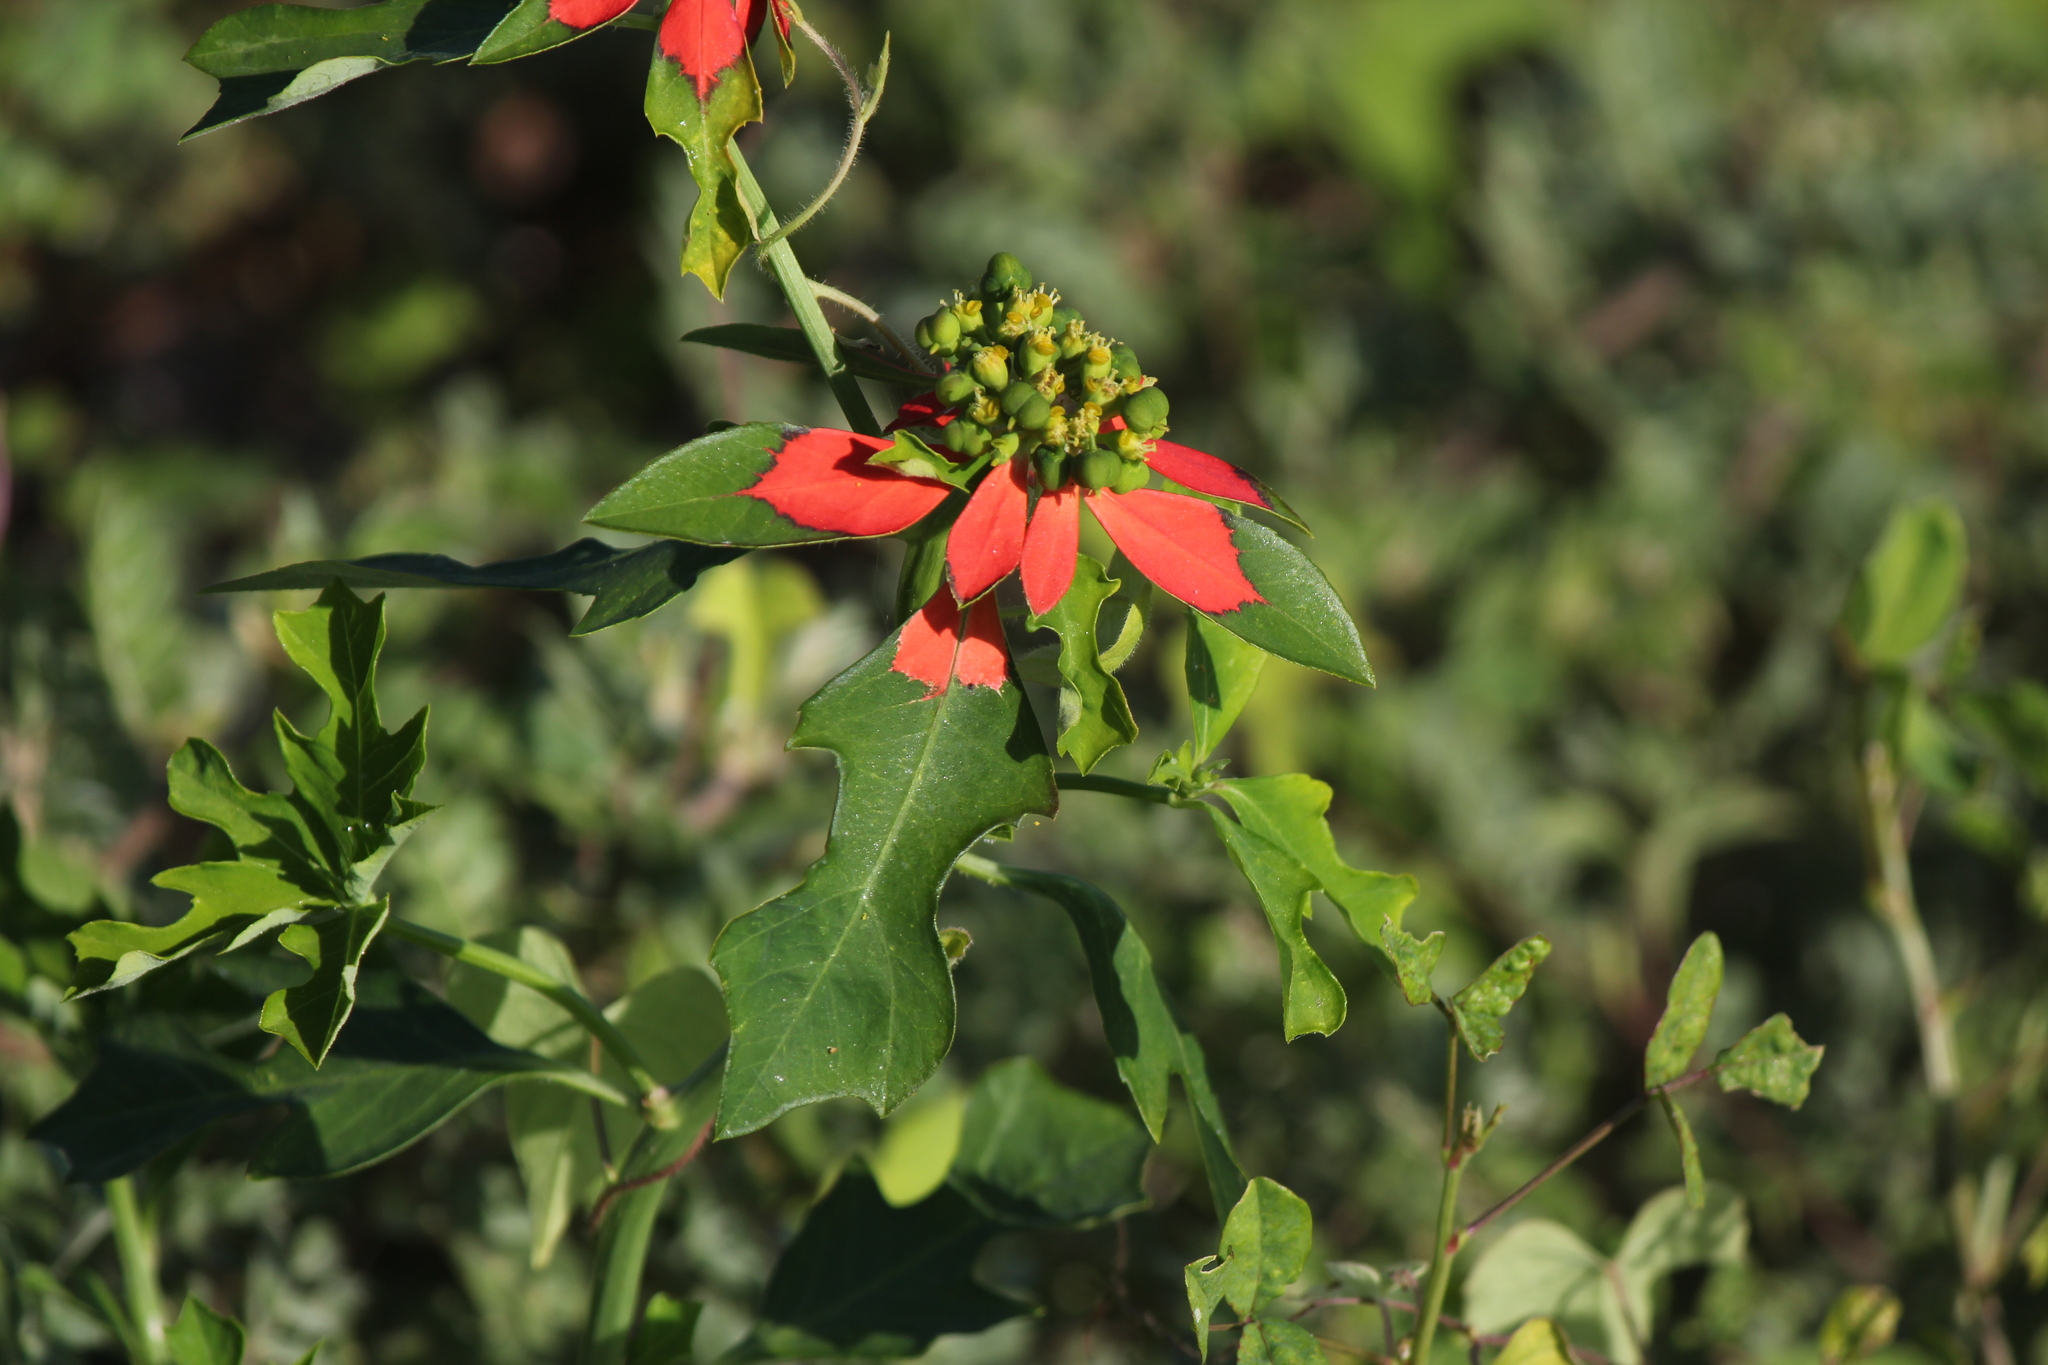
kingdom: Plantae
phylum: Tracheophyta
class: Magnoliopsida
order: Malpighiales
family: Euphorbiaceae
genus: Euphorbia
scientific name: Euphorbia heterophylla
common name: Mexican fireplant
